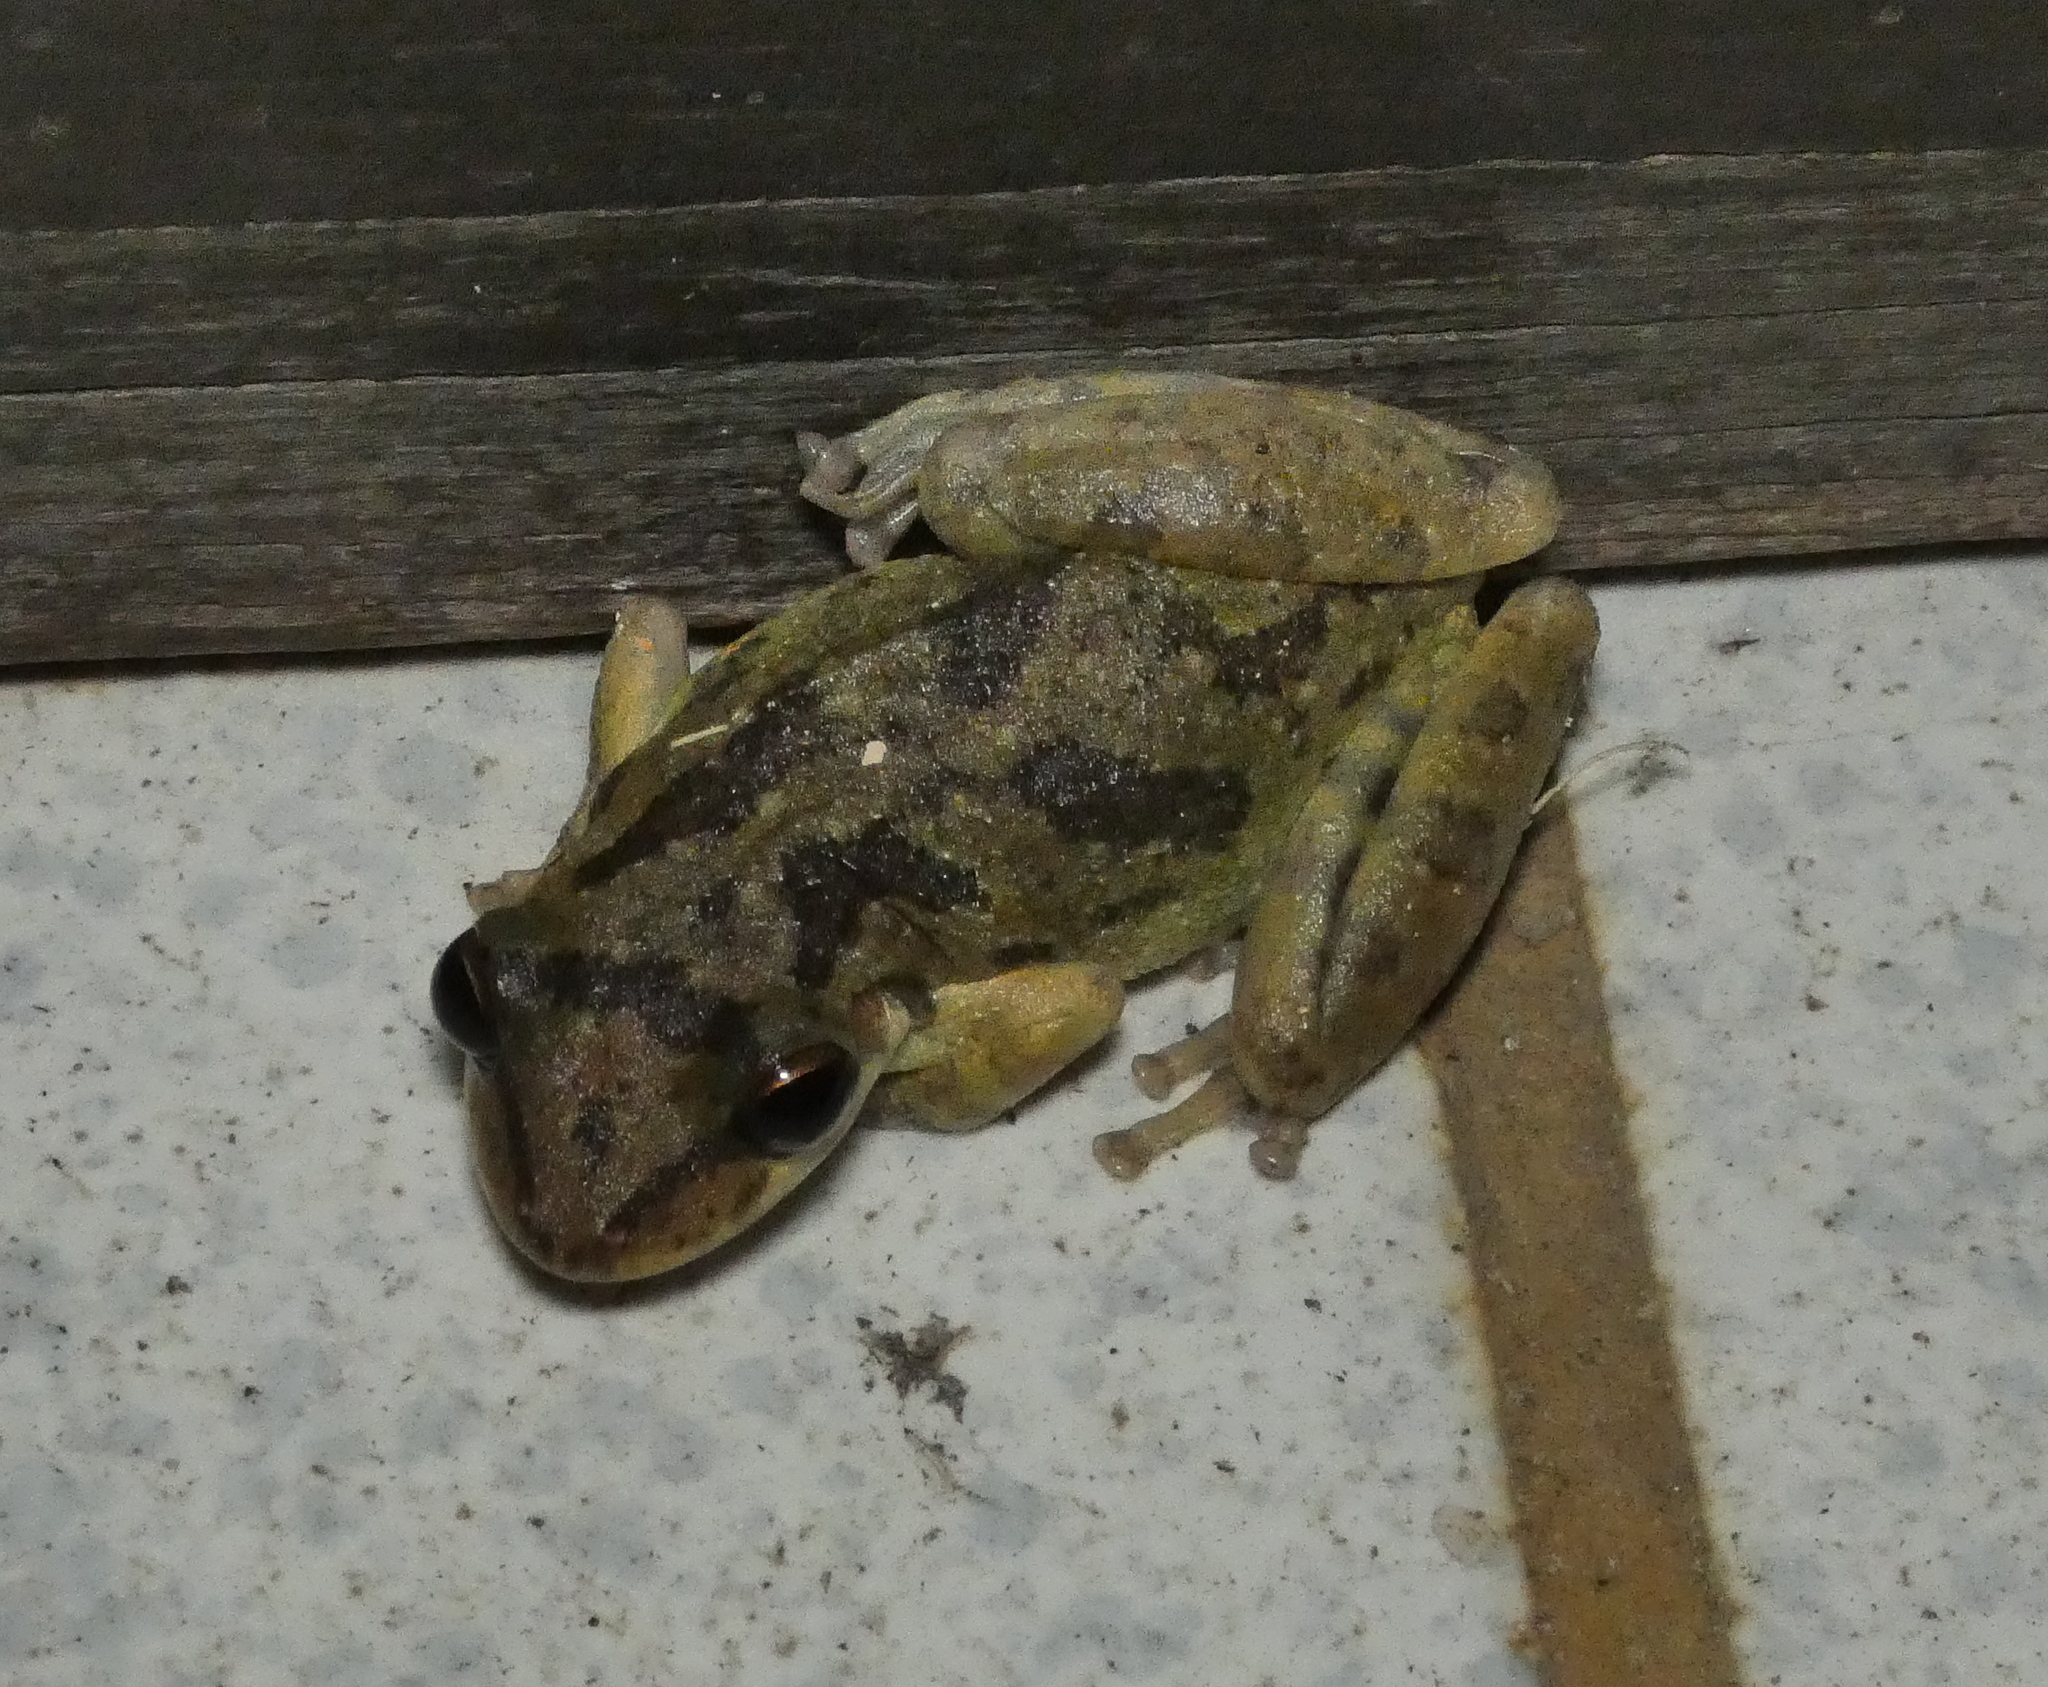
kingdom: Animalia
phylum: Chordata
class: Amphibia
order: Anura
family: Hylidae
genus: Scinax
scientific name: Scinax x-signatus
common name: Venezuela snouted treefrog
